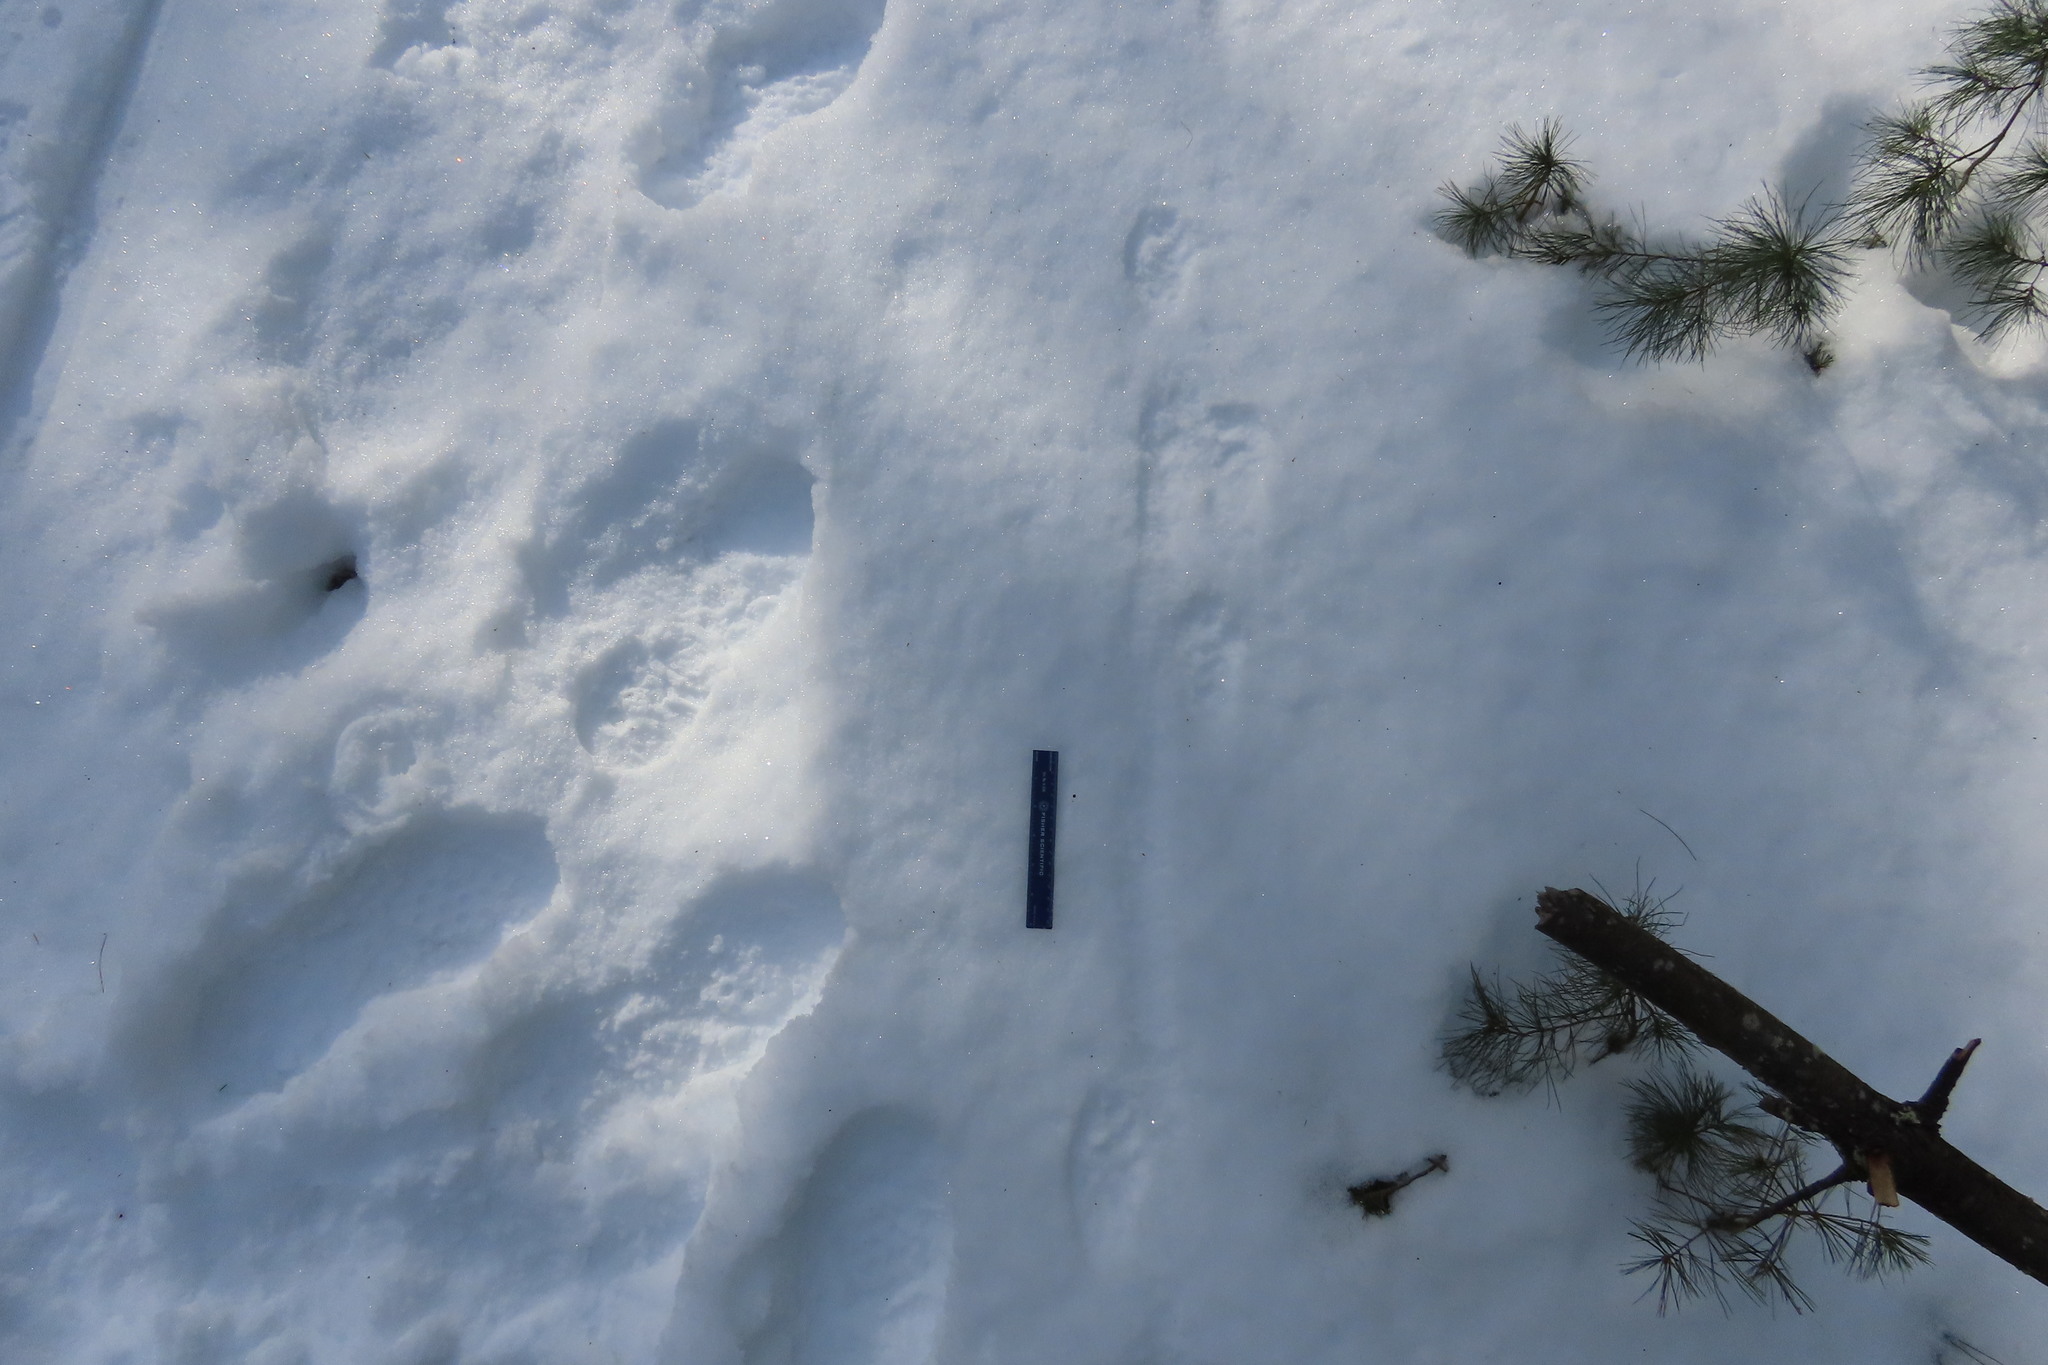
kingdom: Animalia
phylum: Chordata
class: Mammalia
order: Carnivora
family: Mustelidae
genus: Lontra
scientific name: Lontra canadensis
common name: North american river otter
